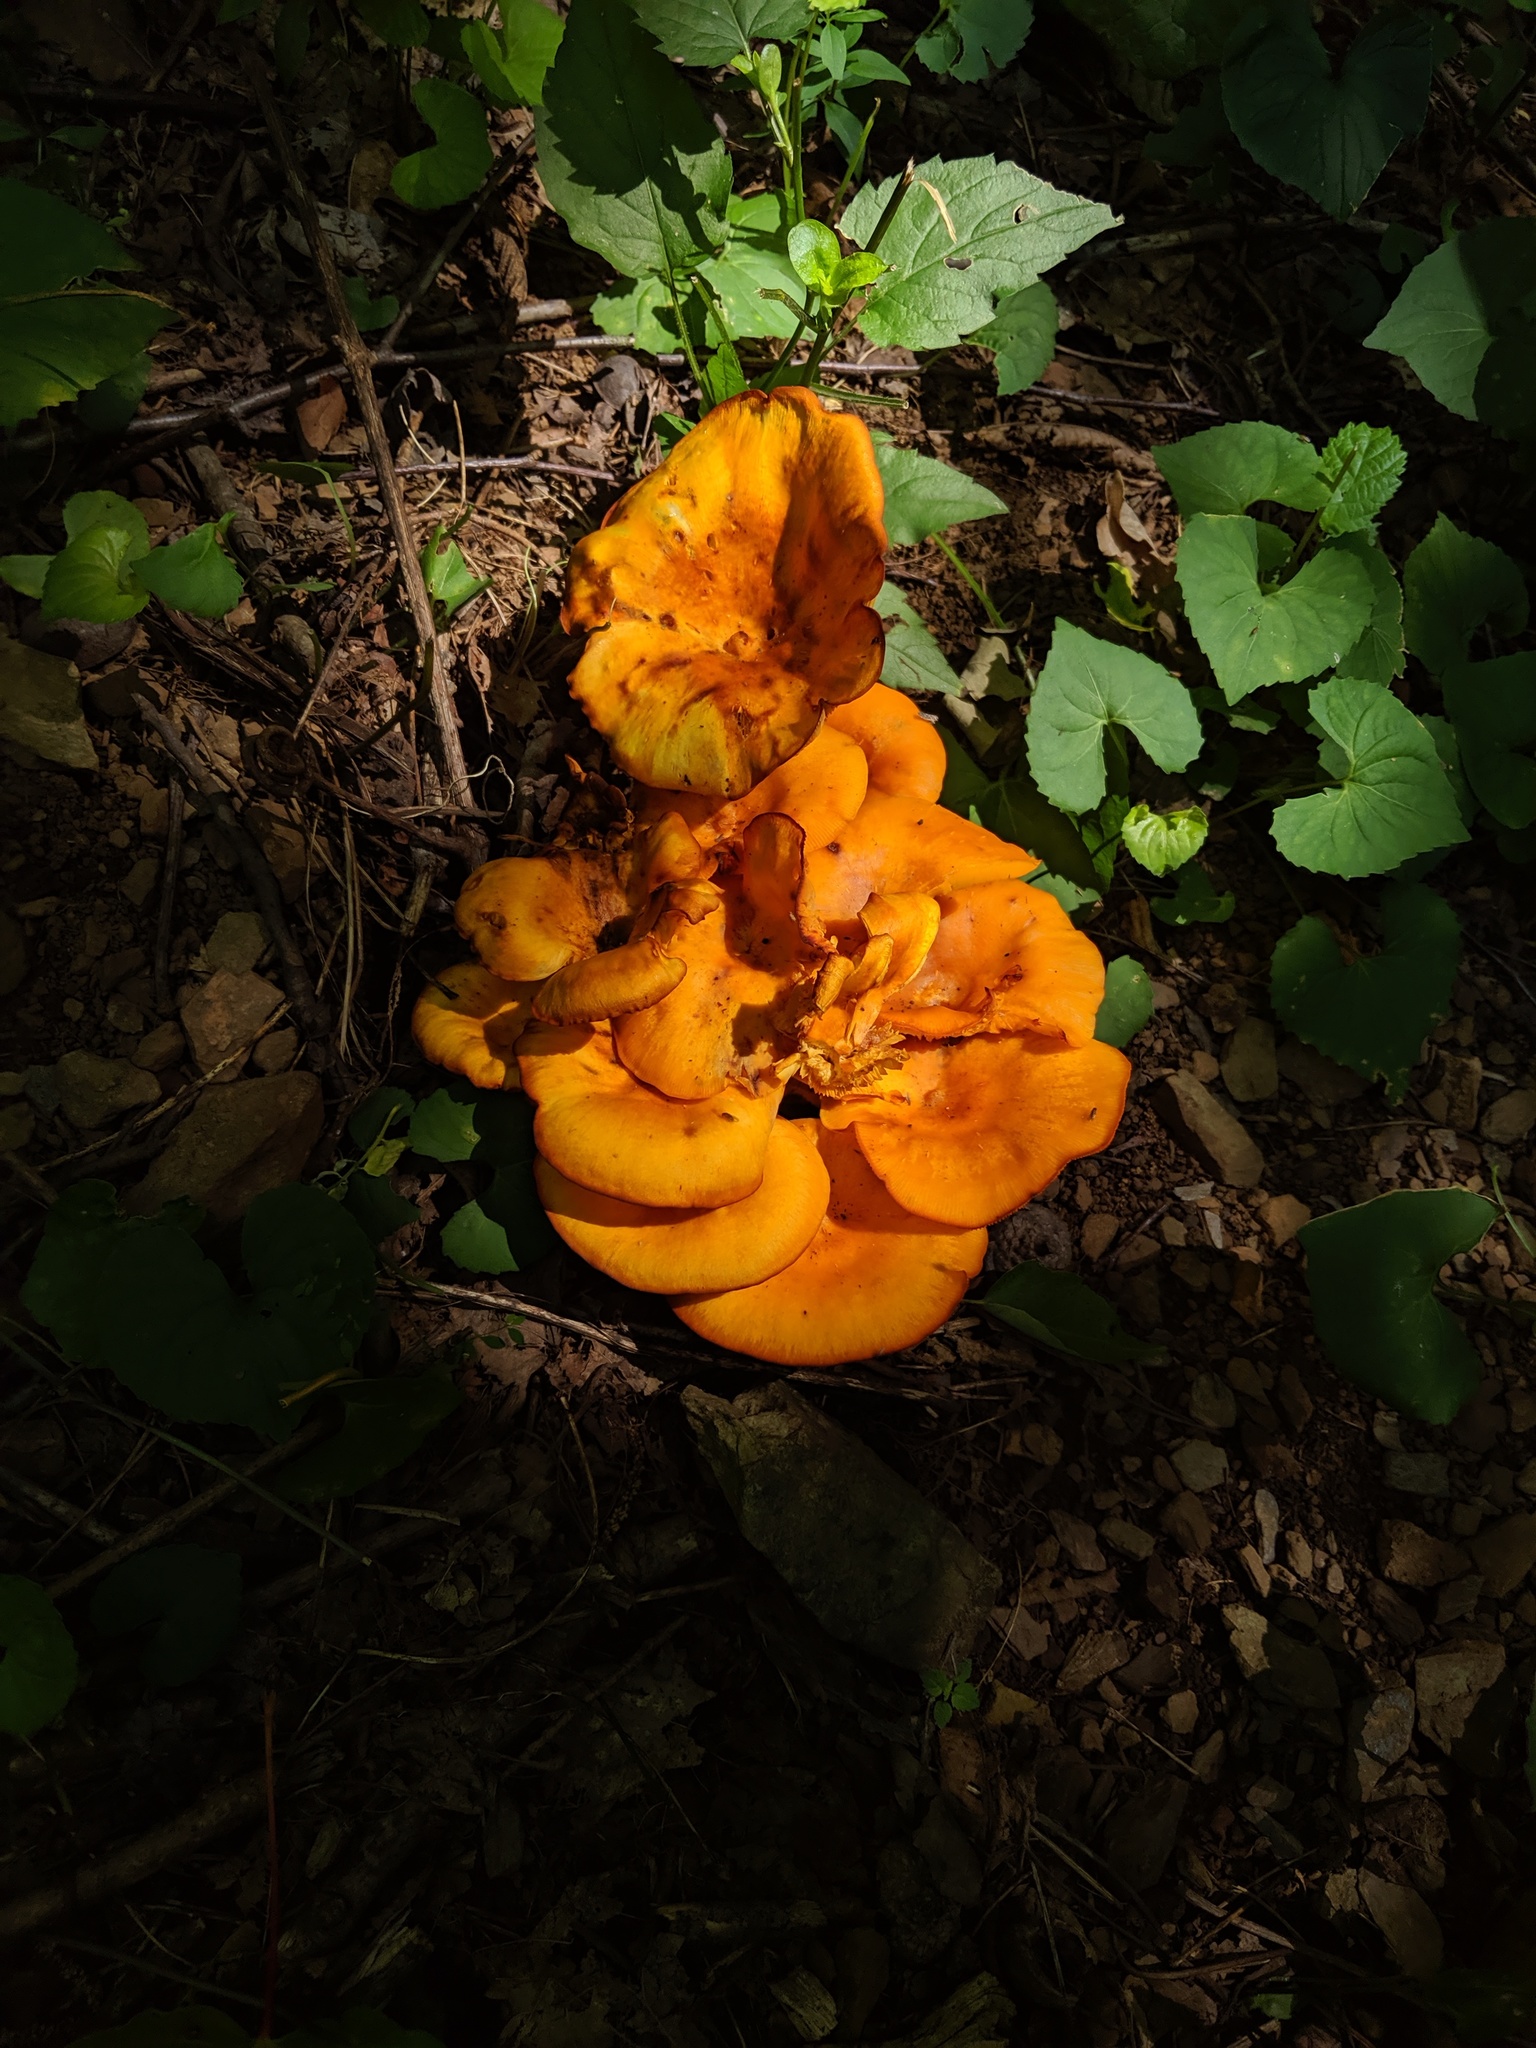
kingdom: Fungi
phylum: Basidiomycota
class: Agaricomycetes
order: Agaricales
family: Omphalotaceae
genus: Omphalotus
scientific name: Omphalotus illudens
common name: Jack o lantern
